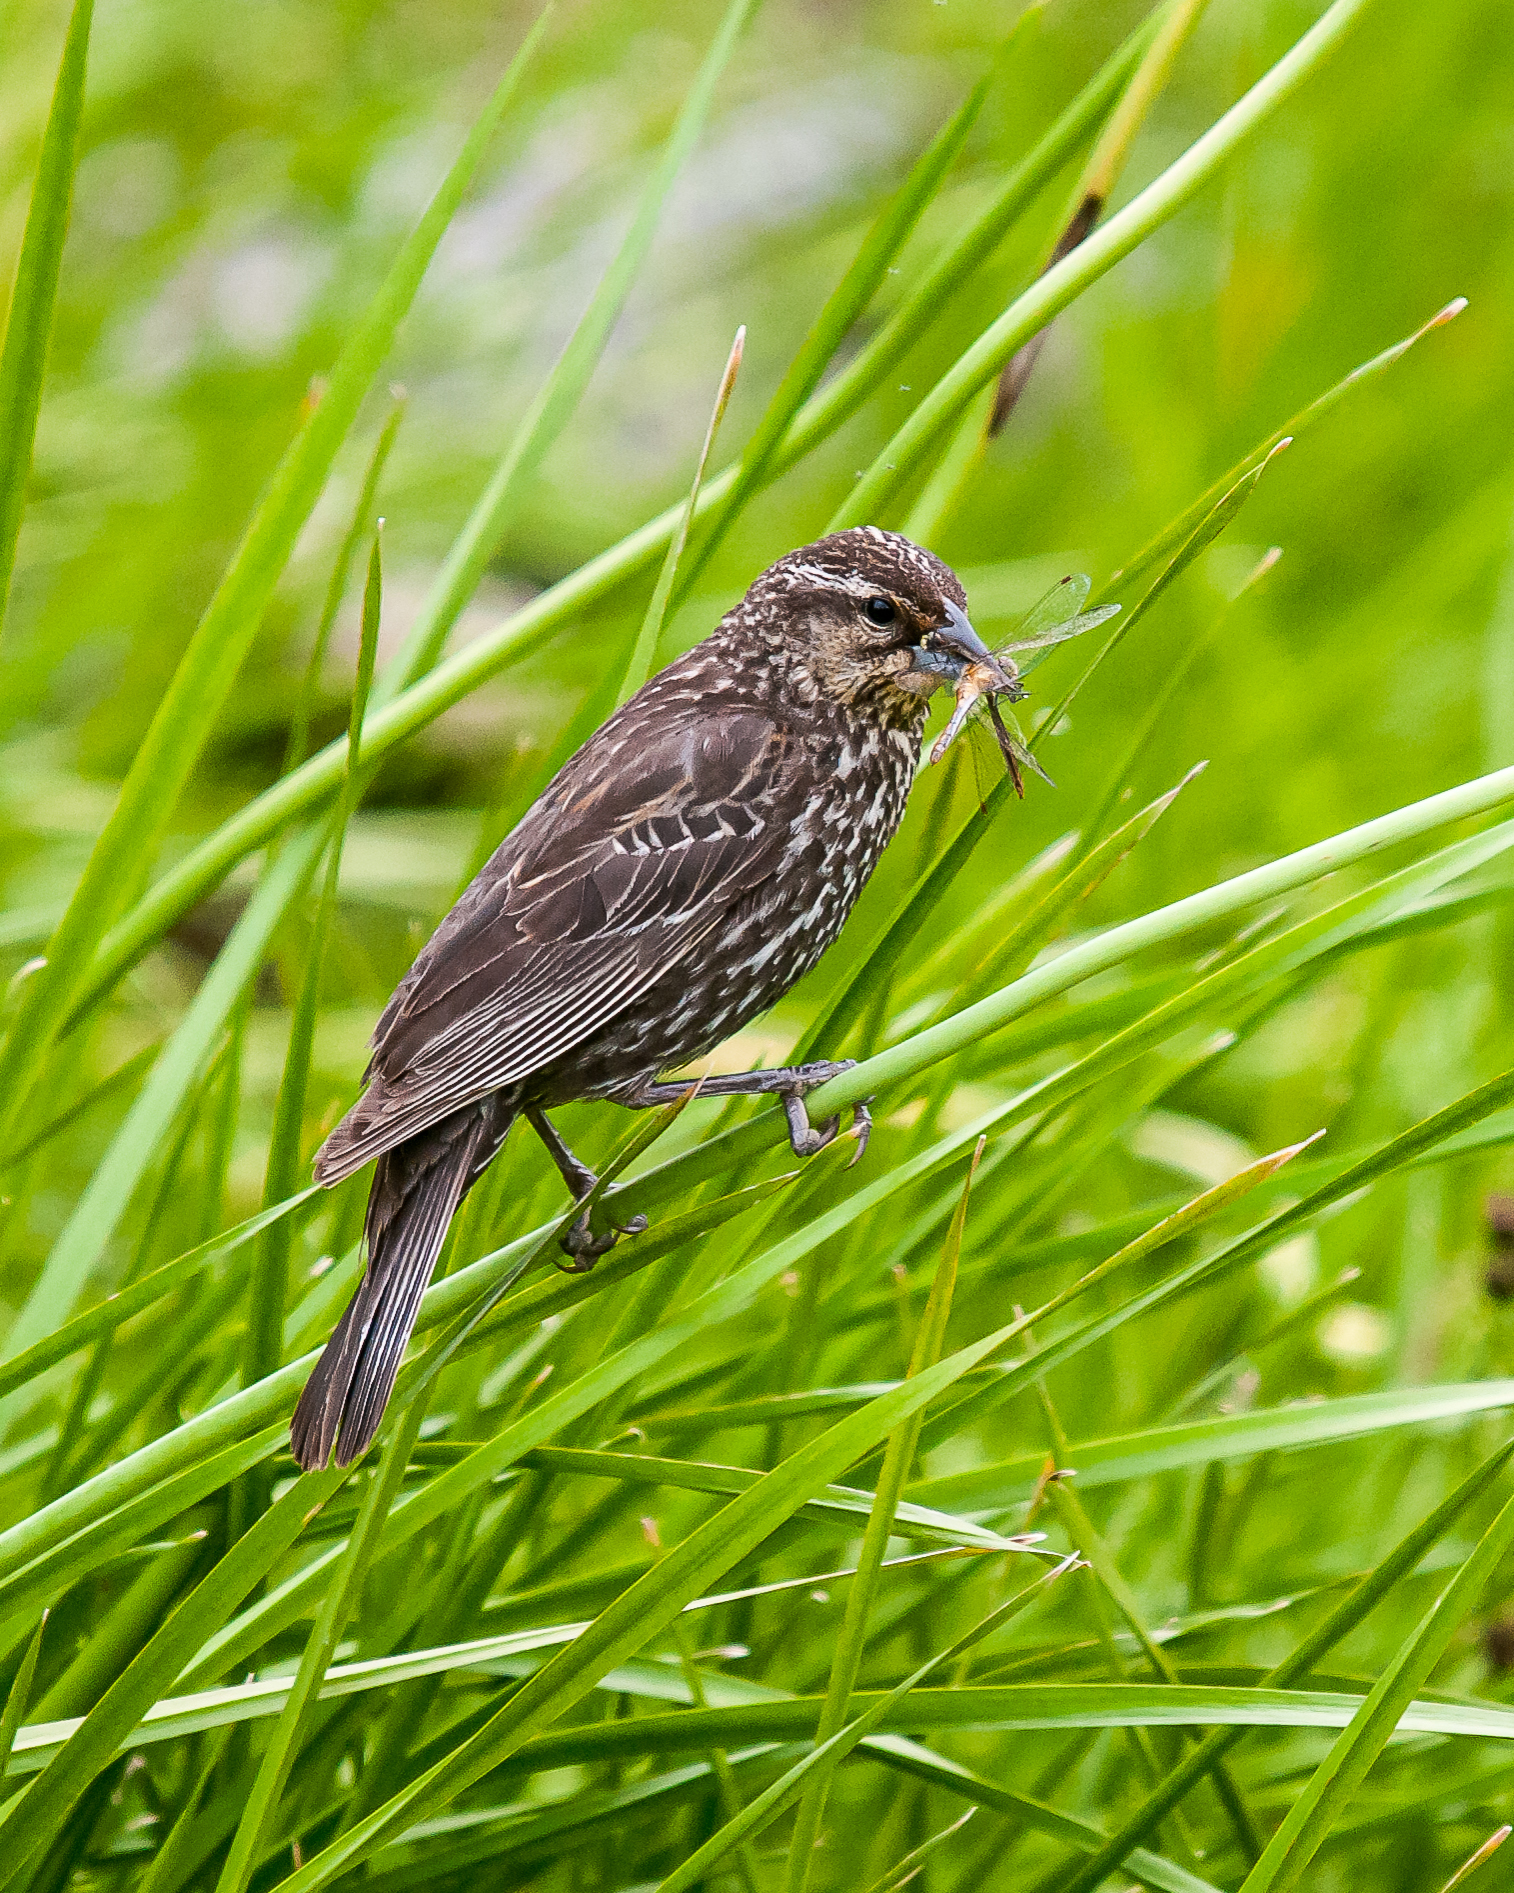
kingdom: Animalia
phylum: Chordata
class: Aves
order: Passeriformes
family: Icteridae
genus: Agelaius
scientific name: Agelaius phoeniceus
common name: Red-winged blackbird
